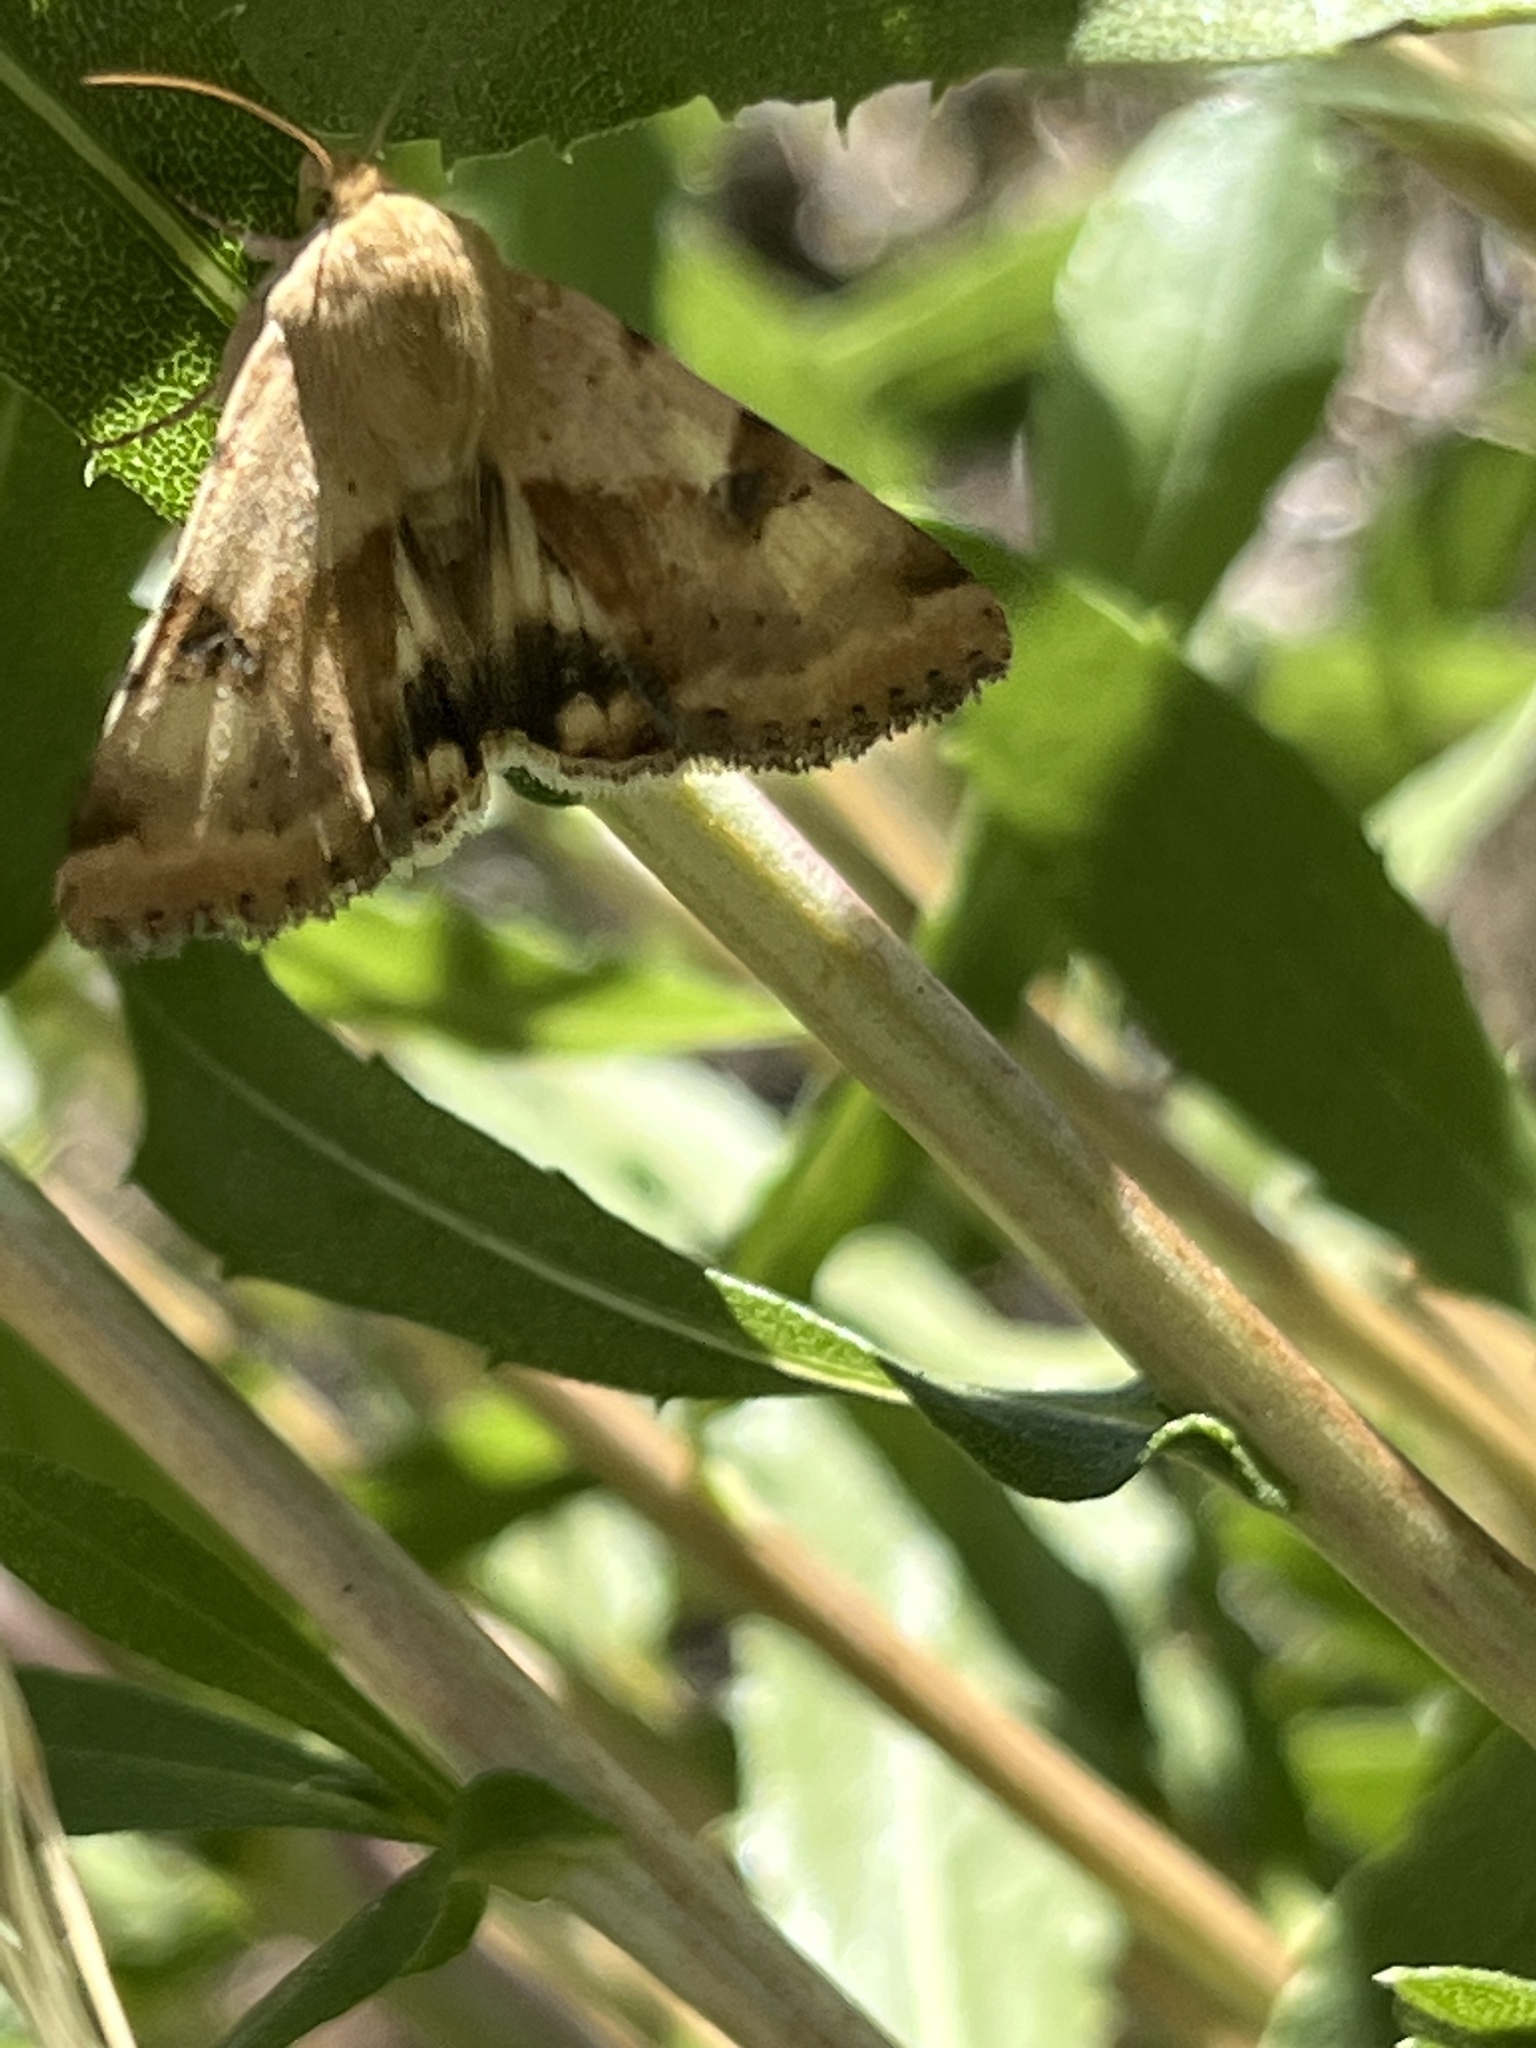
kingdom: Animalia
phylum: Arthropoda
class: Insecta
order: Lepidoptera
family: Noctuidae
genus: Heliothis
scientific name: Heliothis phloxiphaga
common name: Darker spotted straw moth
